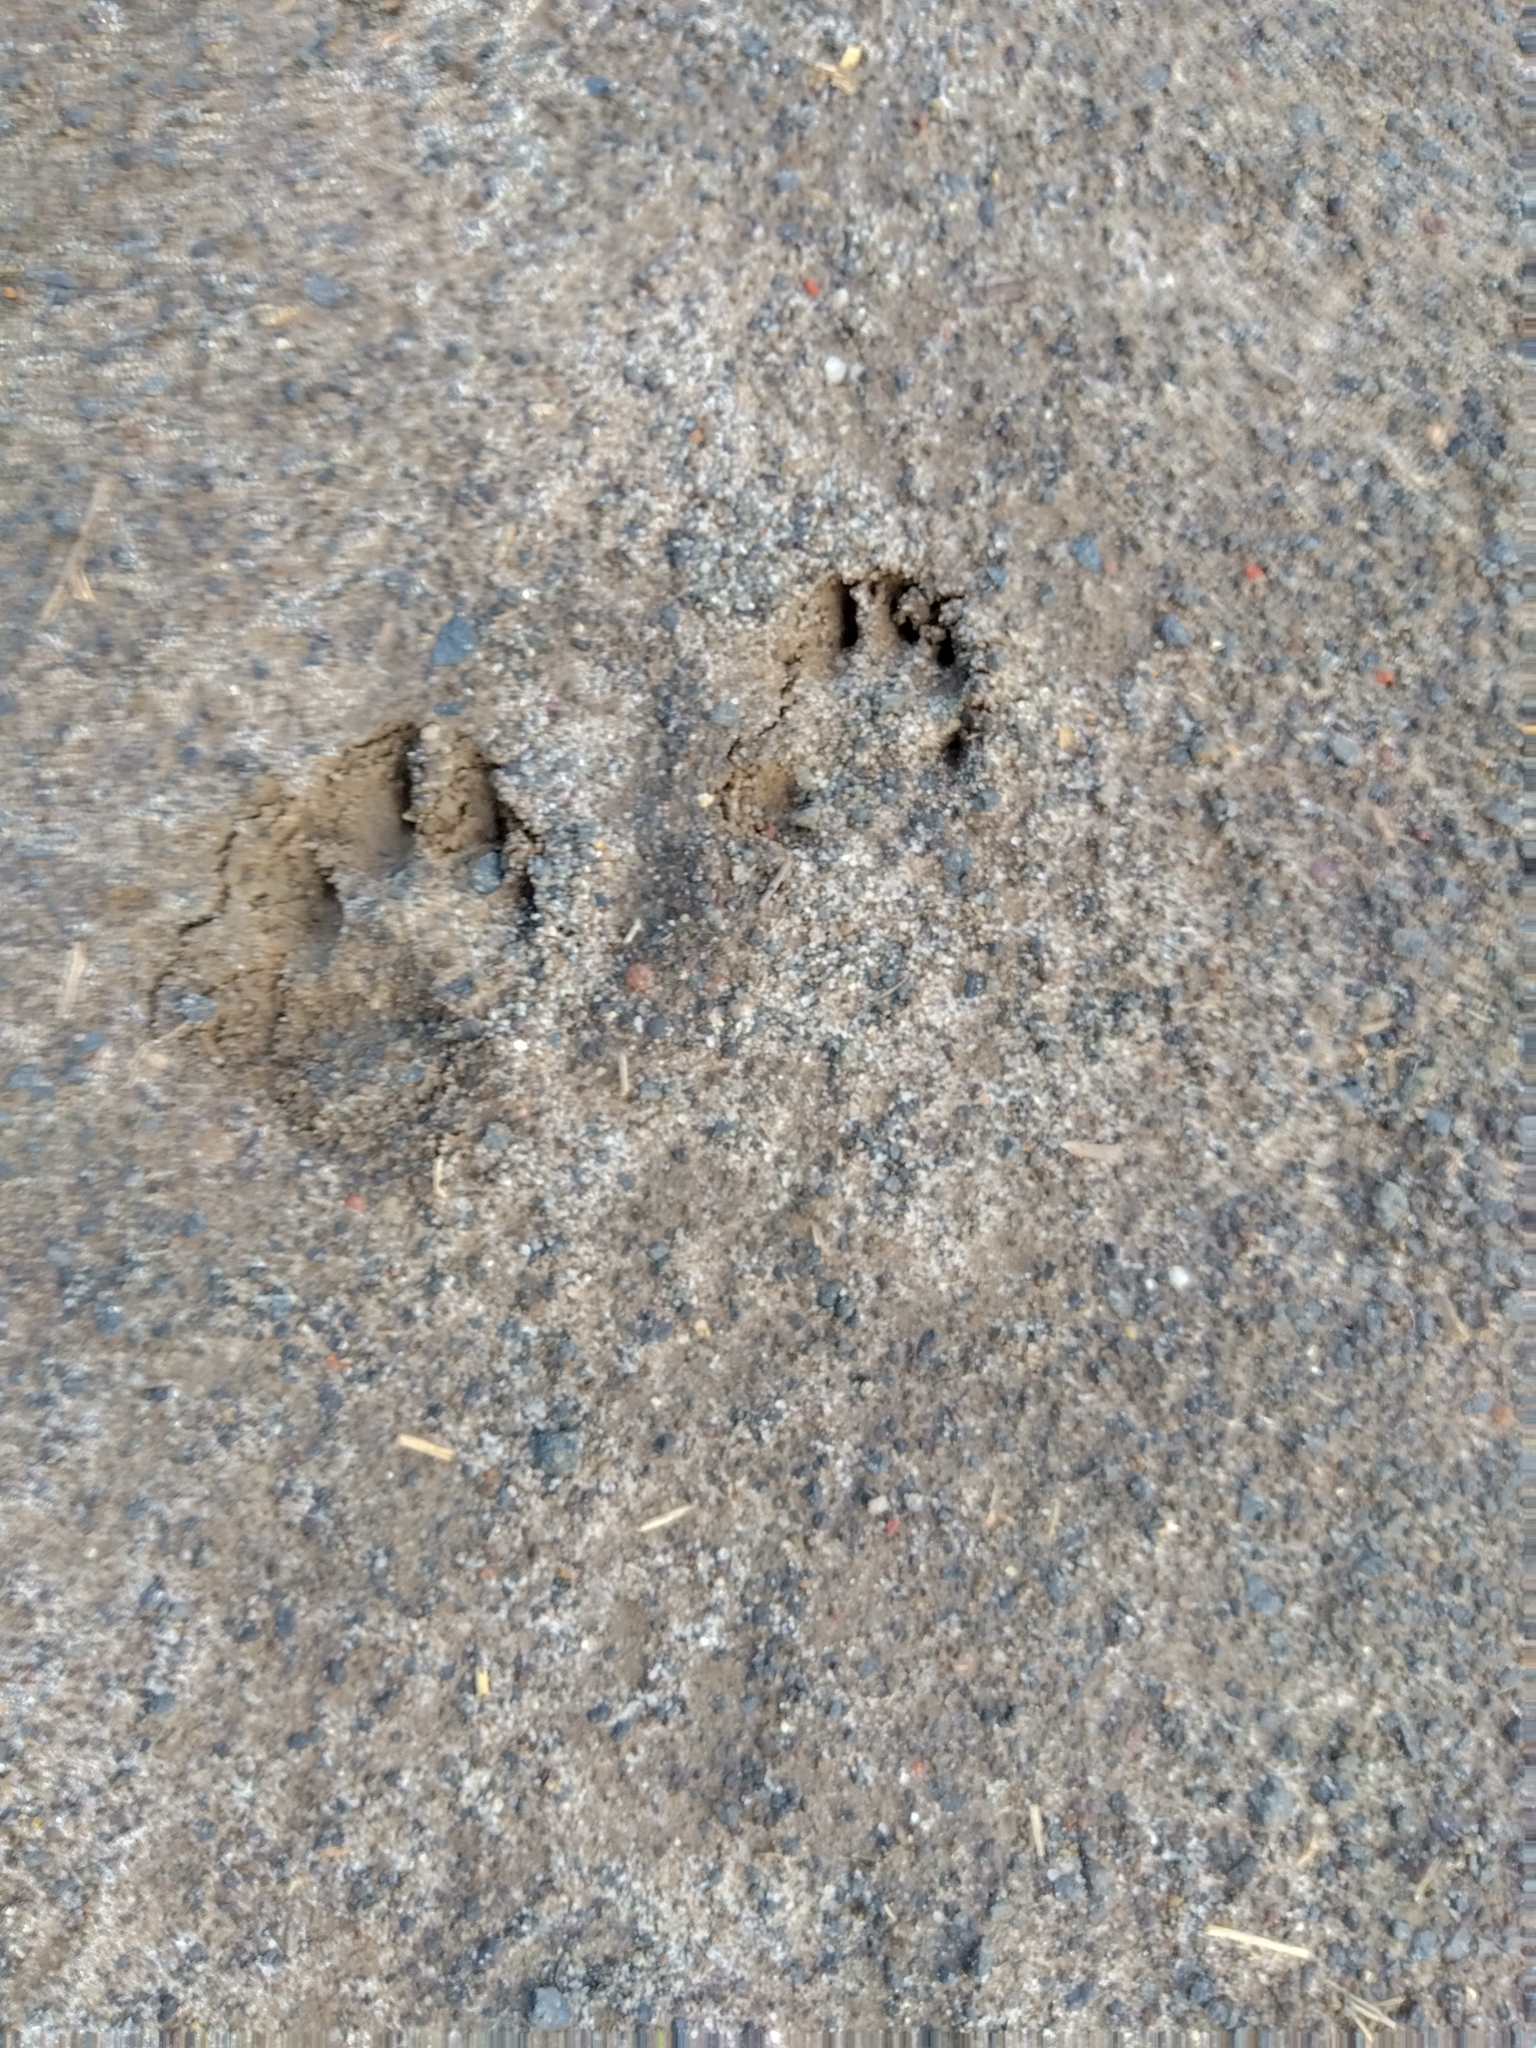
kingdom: Animalia
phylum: Chordata
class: Mammalia
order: Carnivora
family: Canidae
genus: Vulpes
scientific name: Vulpes vulpes
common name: Red fox
